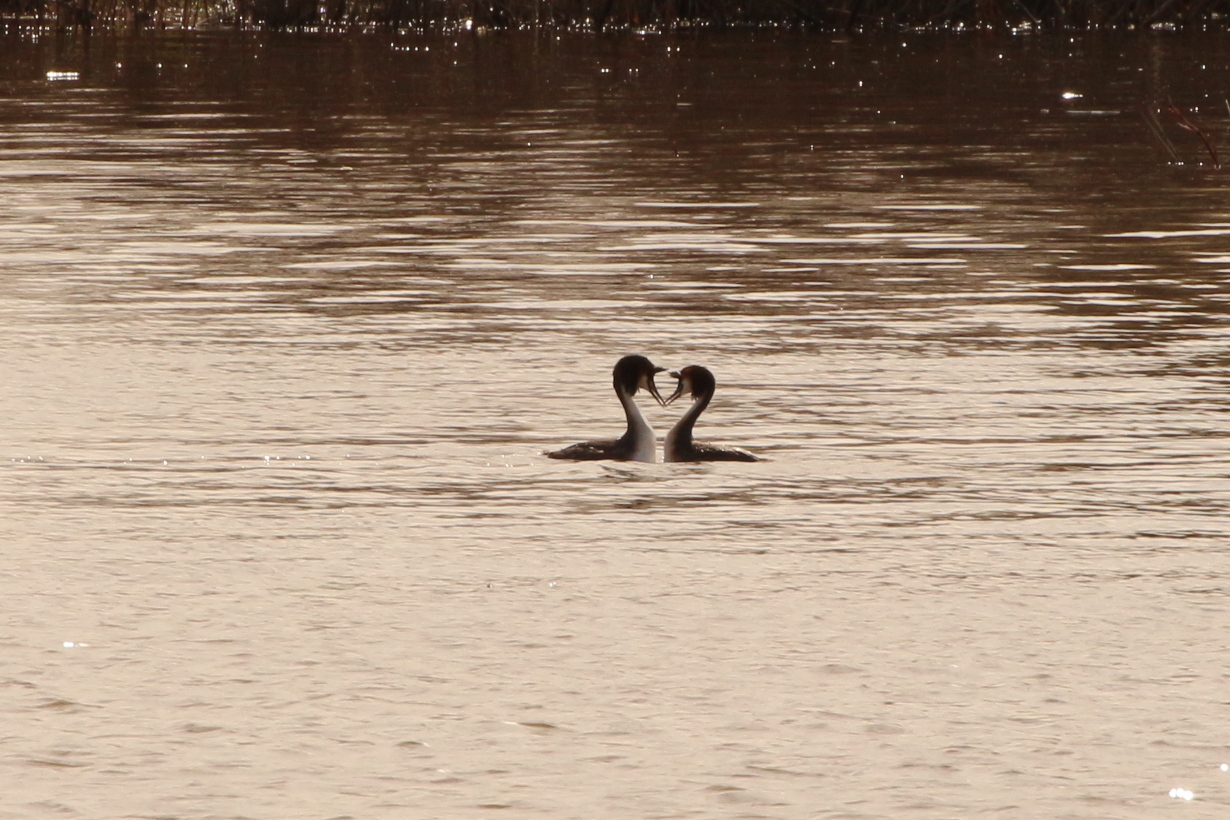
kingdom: Animalia
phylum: Chordata
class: Aves
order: Podicipediformes
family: Podicipedidae
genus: Podiceps
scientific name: Podiceps cristatus
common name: Great crested grebe
